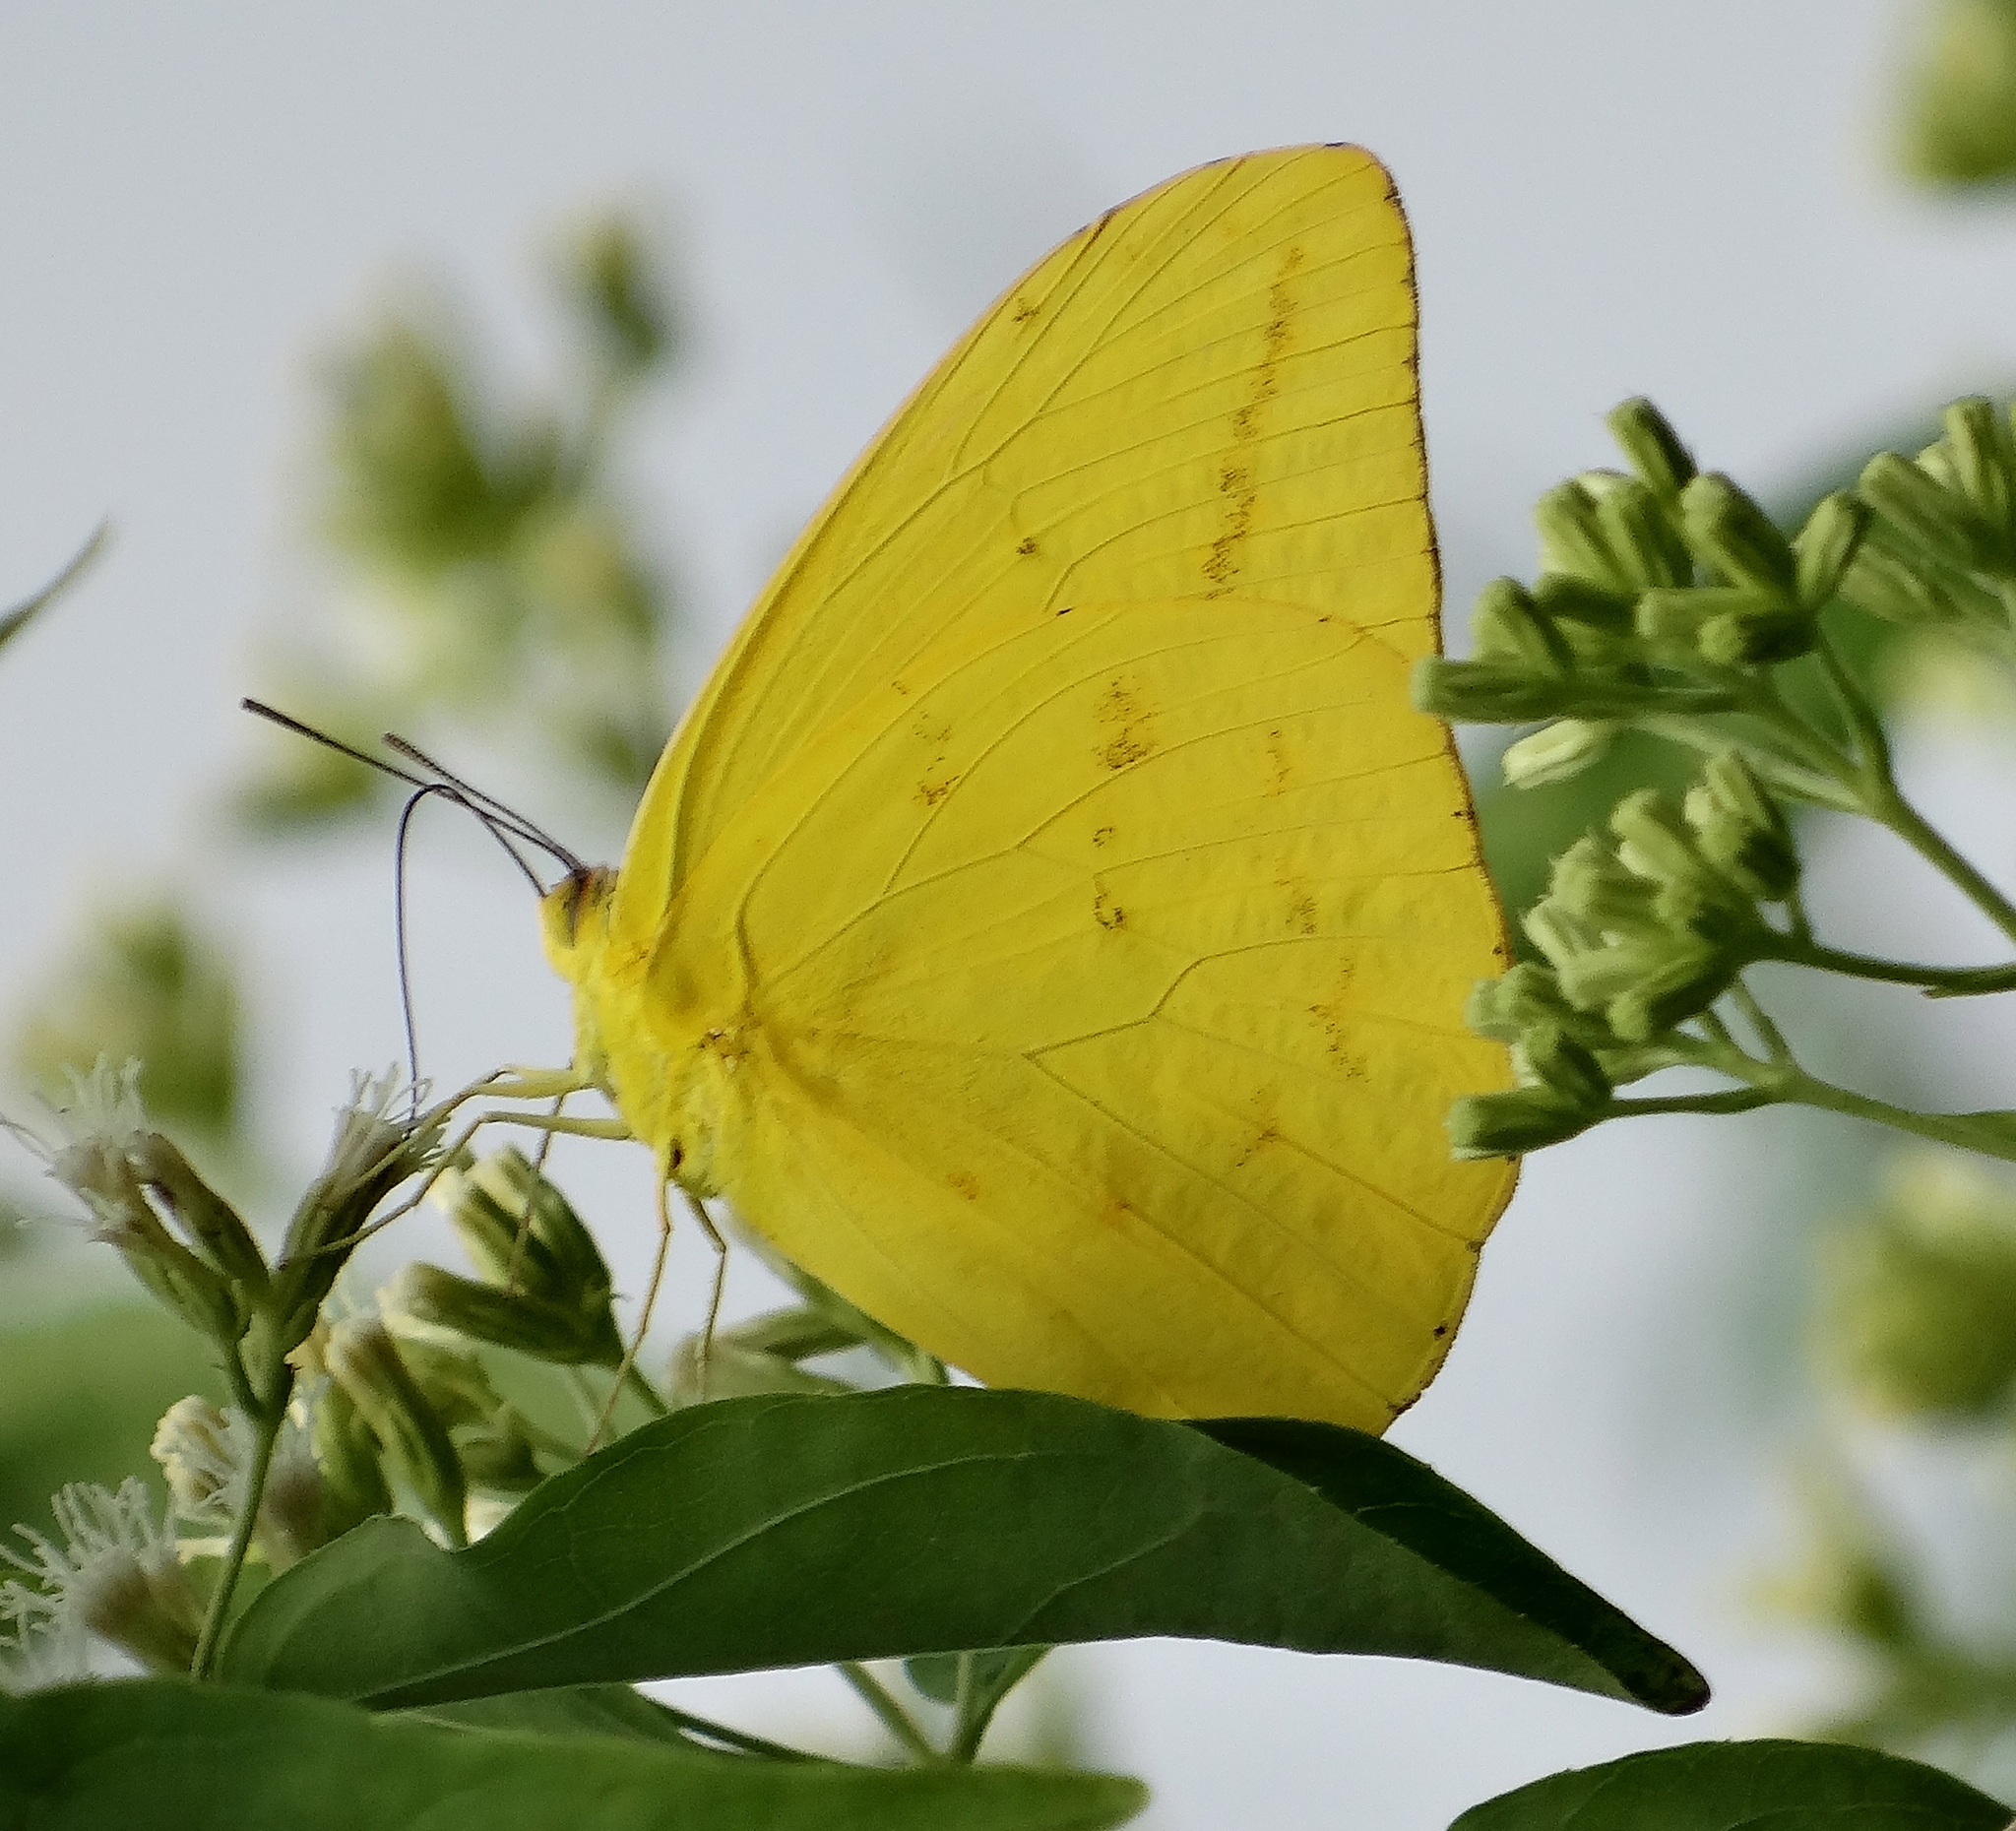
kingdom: Animalia
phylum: Arthropoda
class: Insecta
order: Lepidoptera
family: Pieridae
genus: Phoebis
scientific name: Phoebis agarithe
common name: Large orange sulphur
